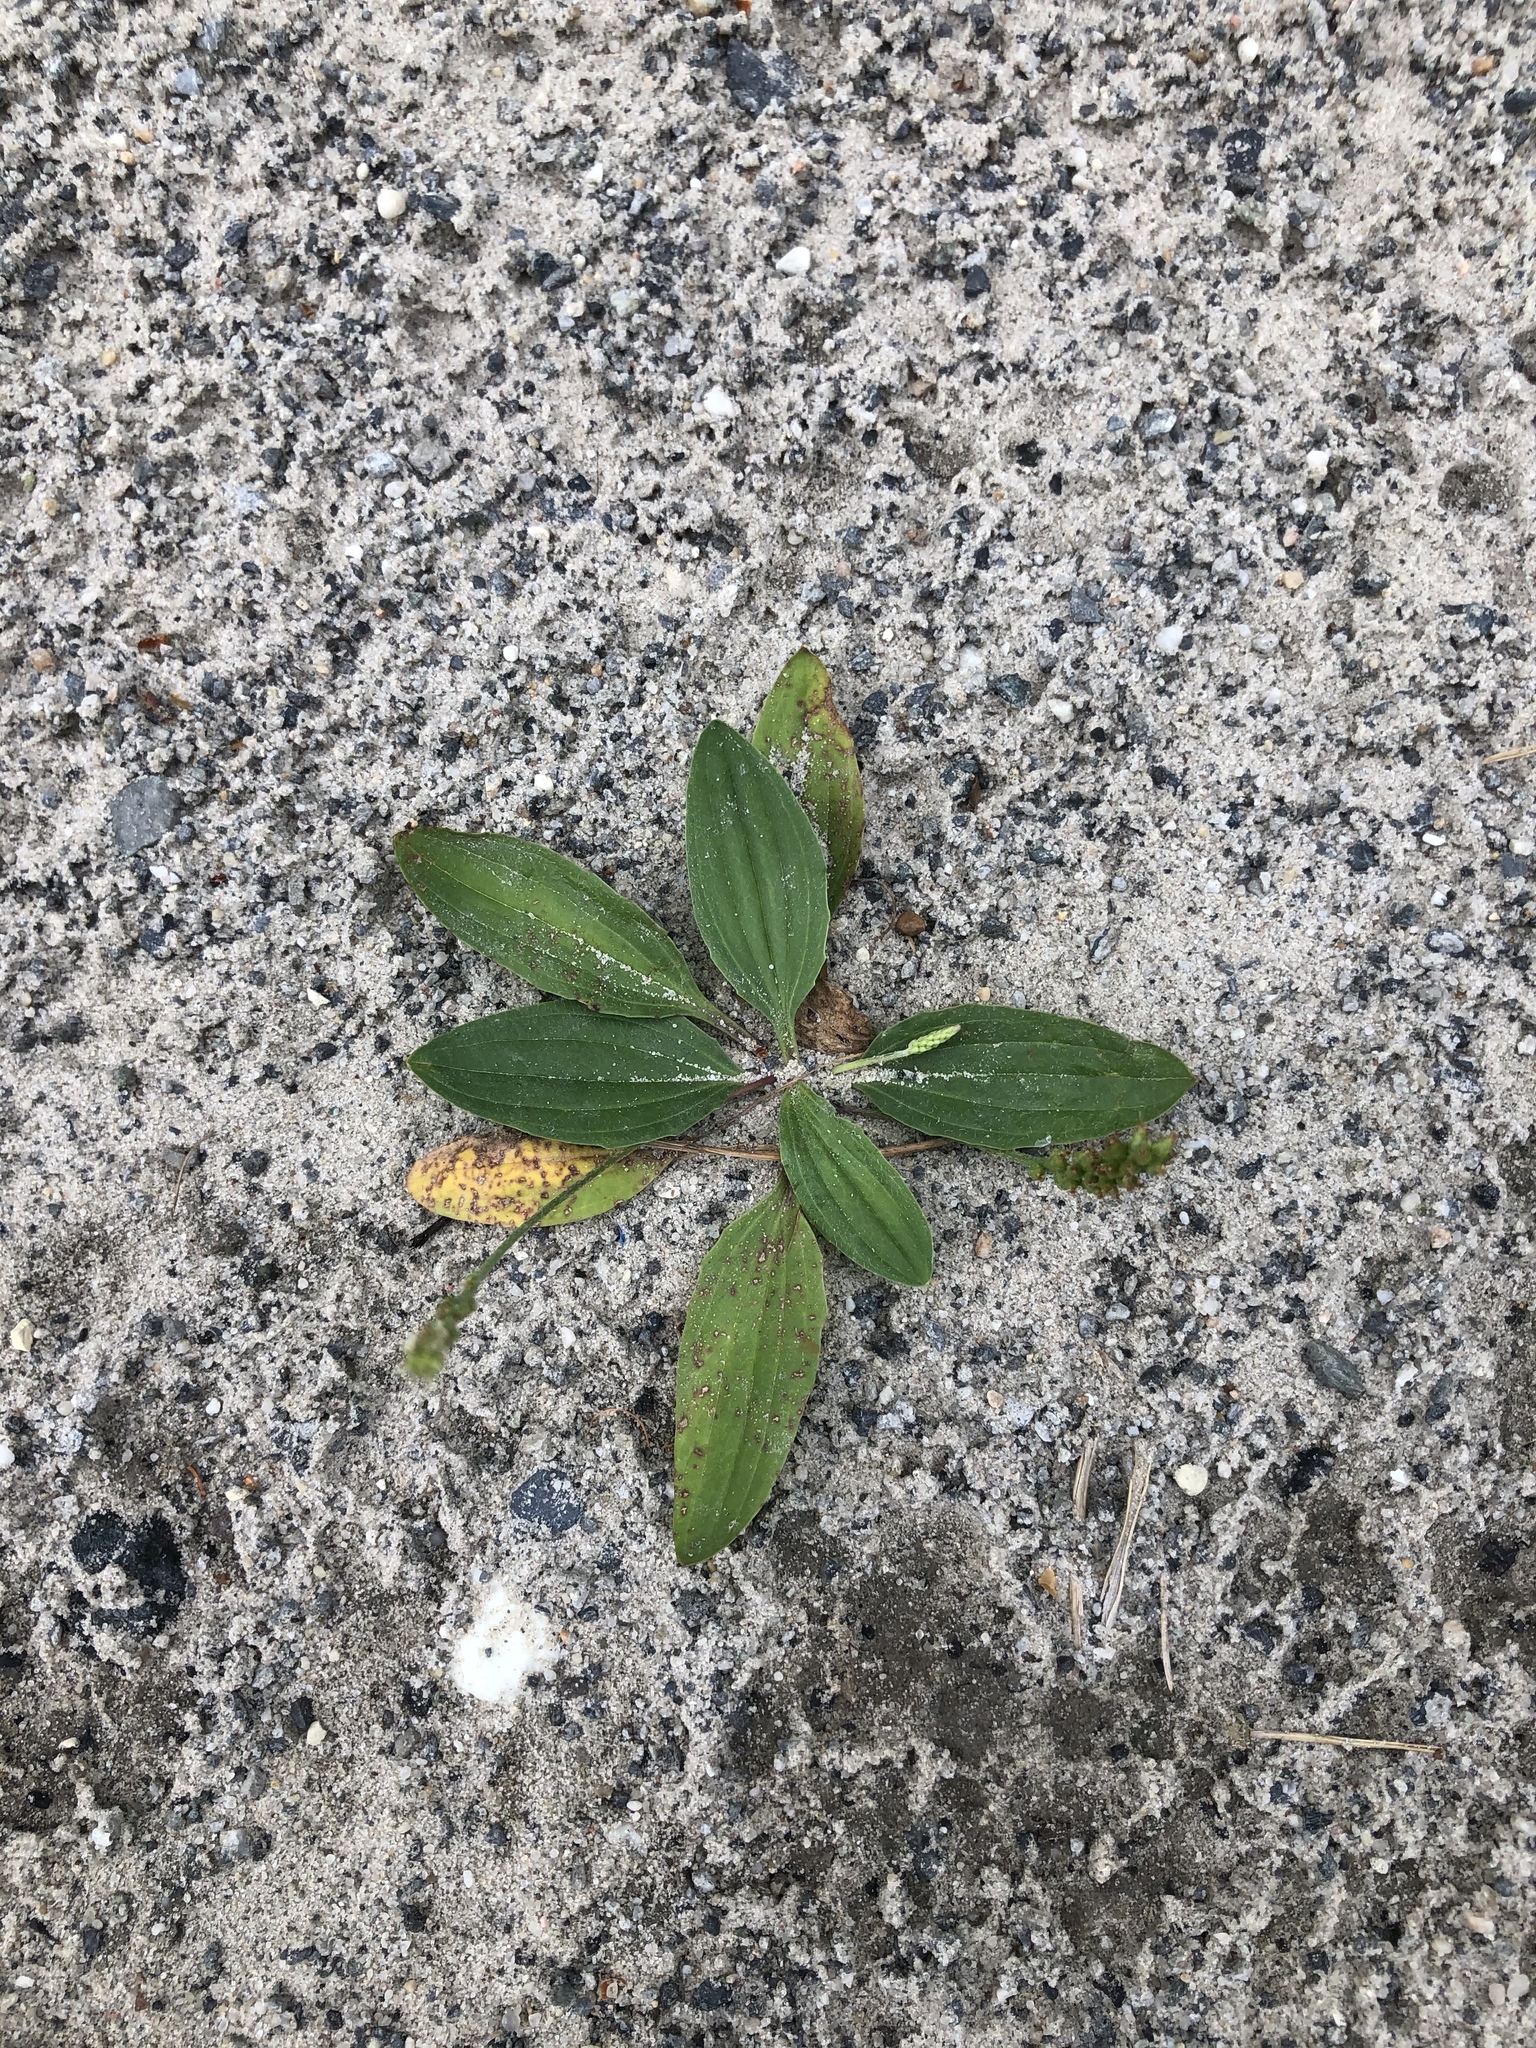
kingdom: Plantae
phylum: Tracheophyta
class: Magnoliopsida
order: Lamiales
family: Plantaginaceae
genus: Plantago
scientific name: Plantago depressa
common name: Depressed plantain
